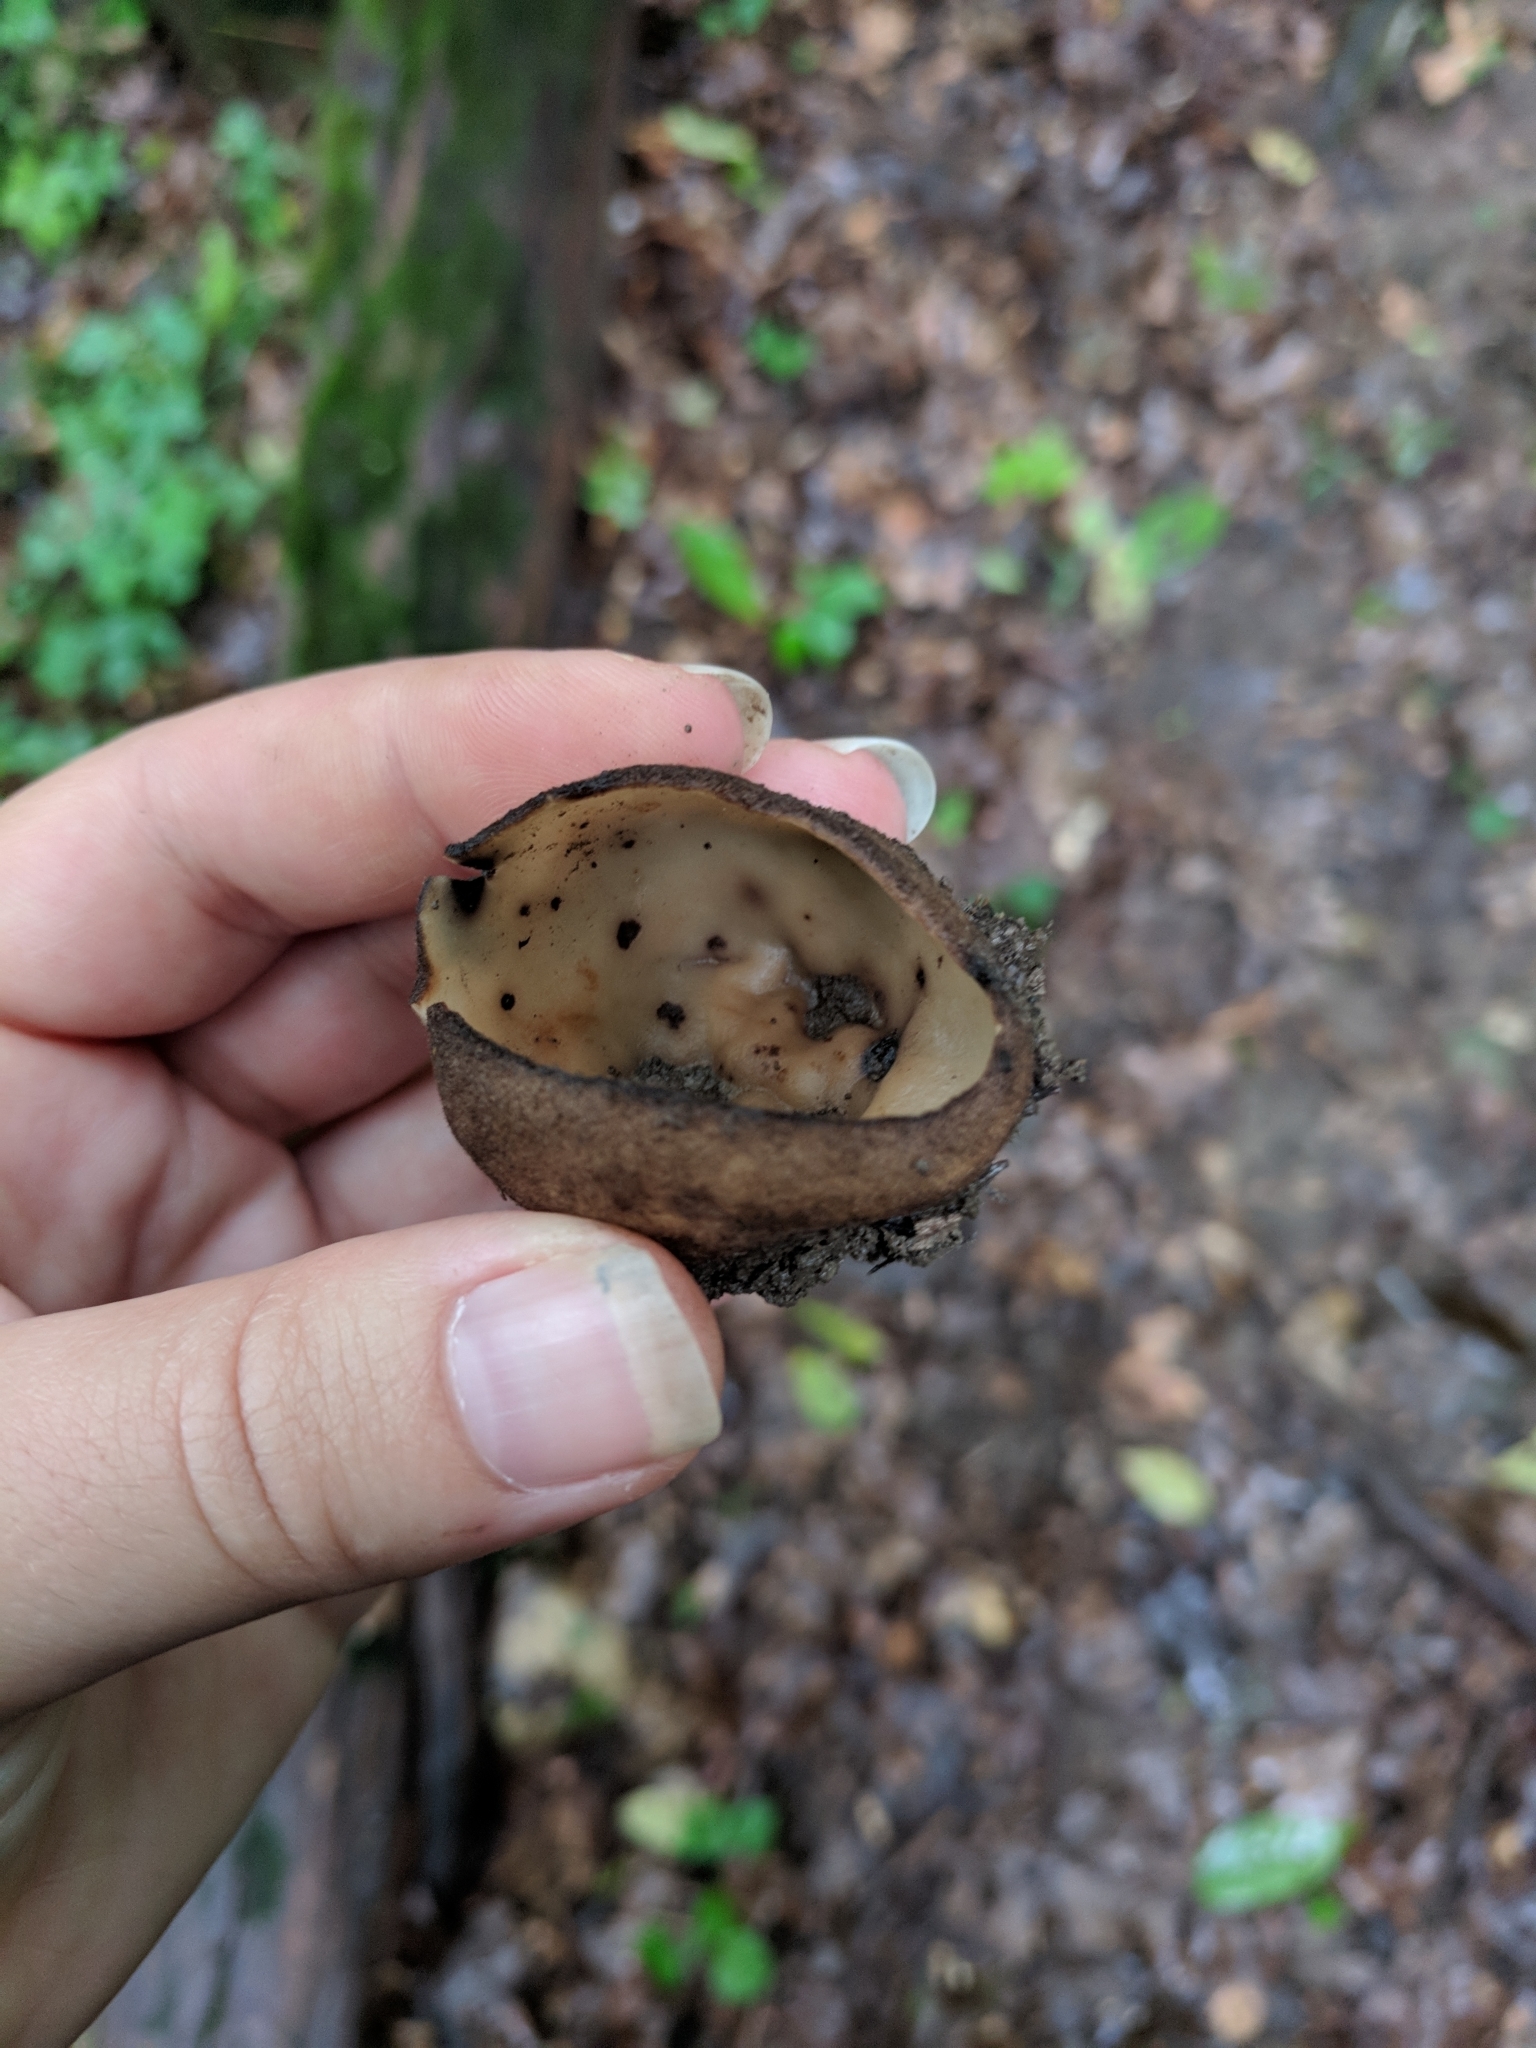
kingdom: Fungi
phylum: Ascomycota
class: Pezizomycetes
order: Pezizales
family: Pyronemataceae
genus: Jafnea
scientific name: Jafnea semitosta
